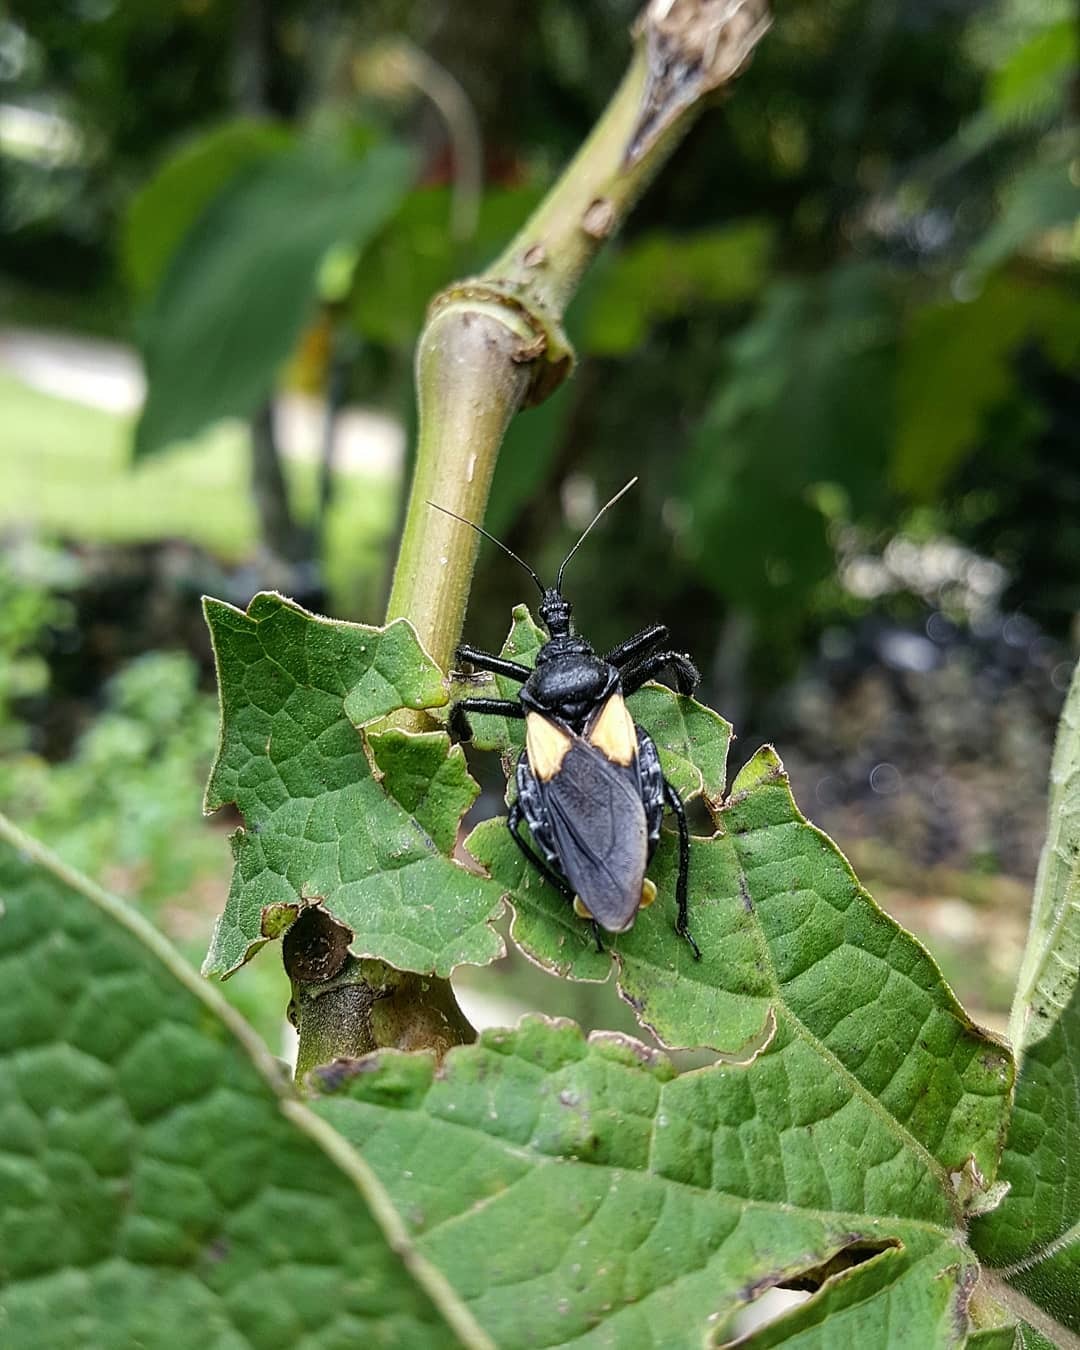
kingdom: Animalia
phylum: Arthropoda
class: Insecta
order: Hemiptera
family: Reduviidae
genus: Apiomerus
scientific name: Apiomerus elatus
